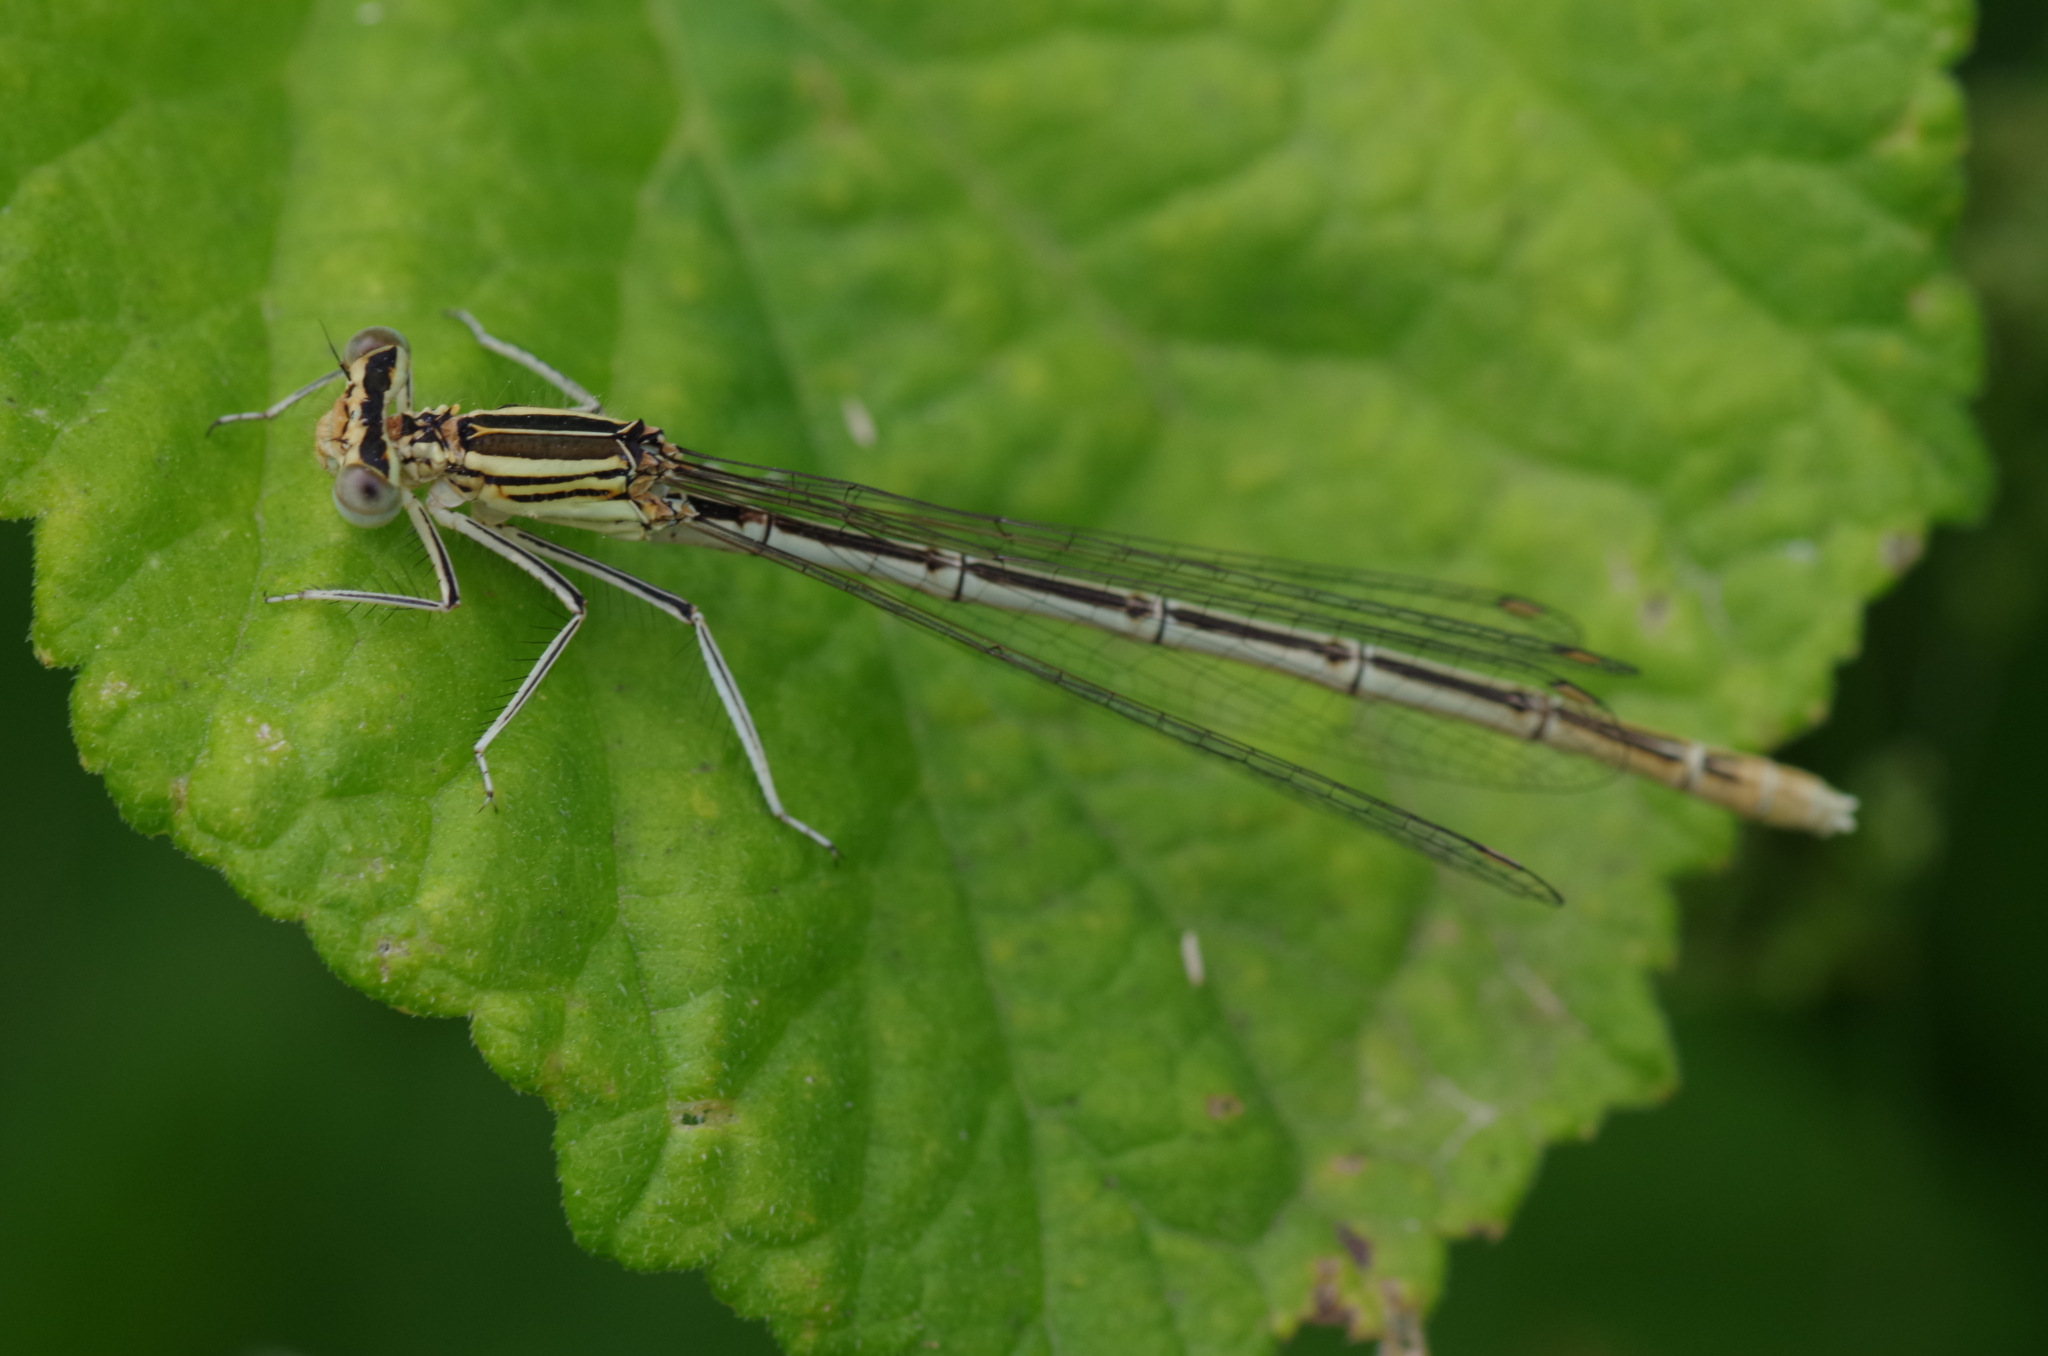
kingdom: Animalia
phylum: Arthropoda
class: Insecta
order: Odonata
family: Platycnemididae
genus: Platycnemis
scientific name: Platycnemis pennipes
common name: White-legged damselfly
